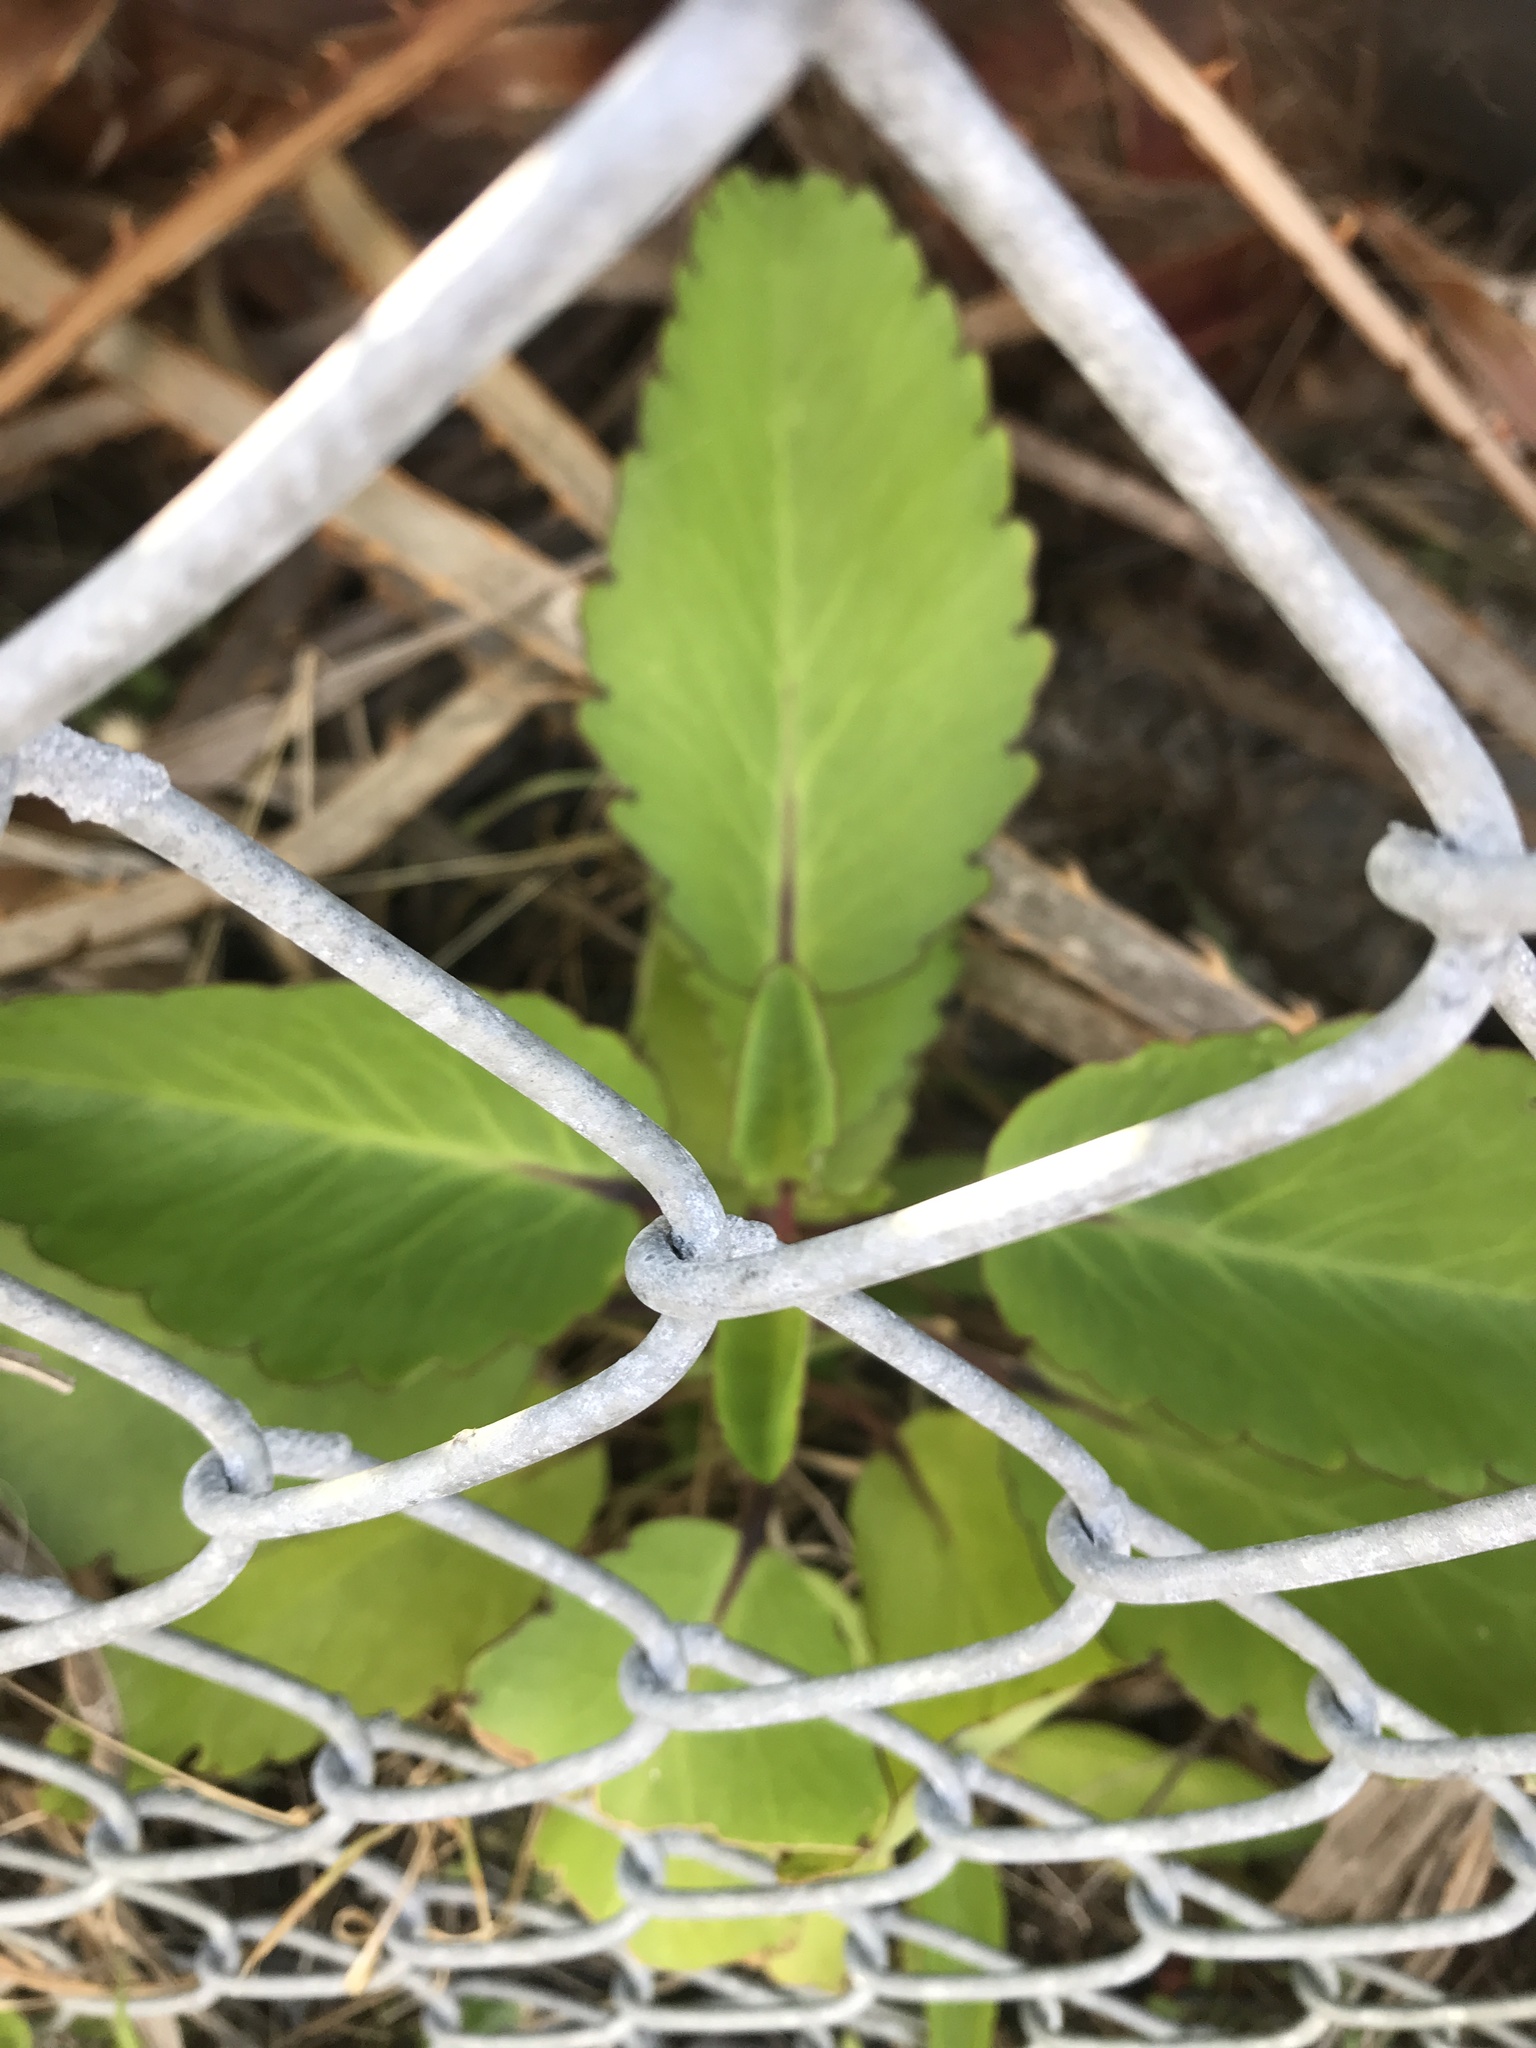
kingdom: Plantae
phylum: Tracheophyta
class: Magnoliopsida
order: Saxifragales
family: Crassulaceae
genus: Kalanchoe
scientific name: Kalanchoe pinnata
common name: Cathedral bells
